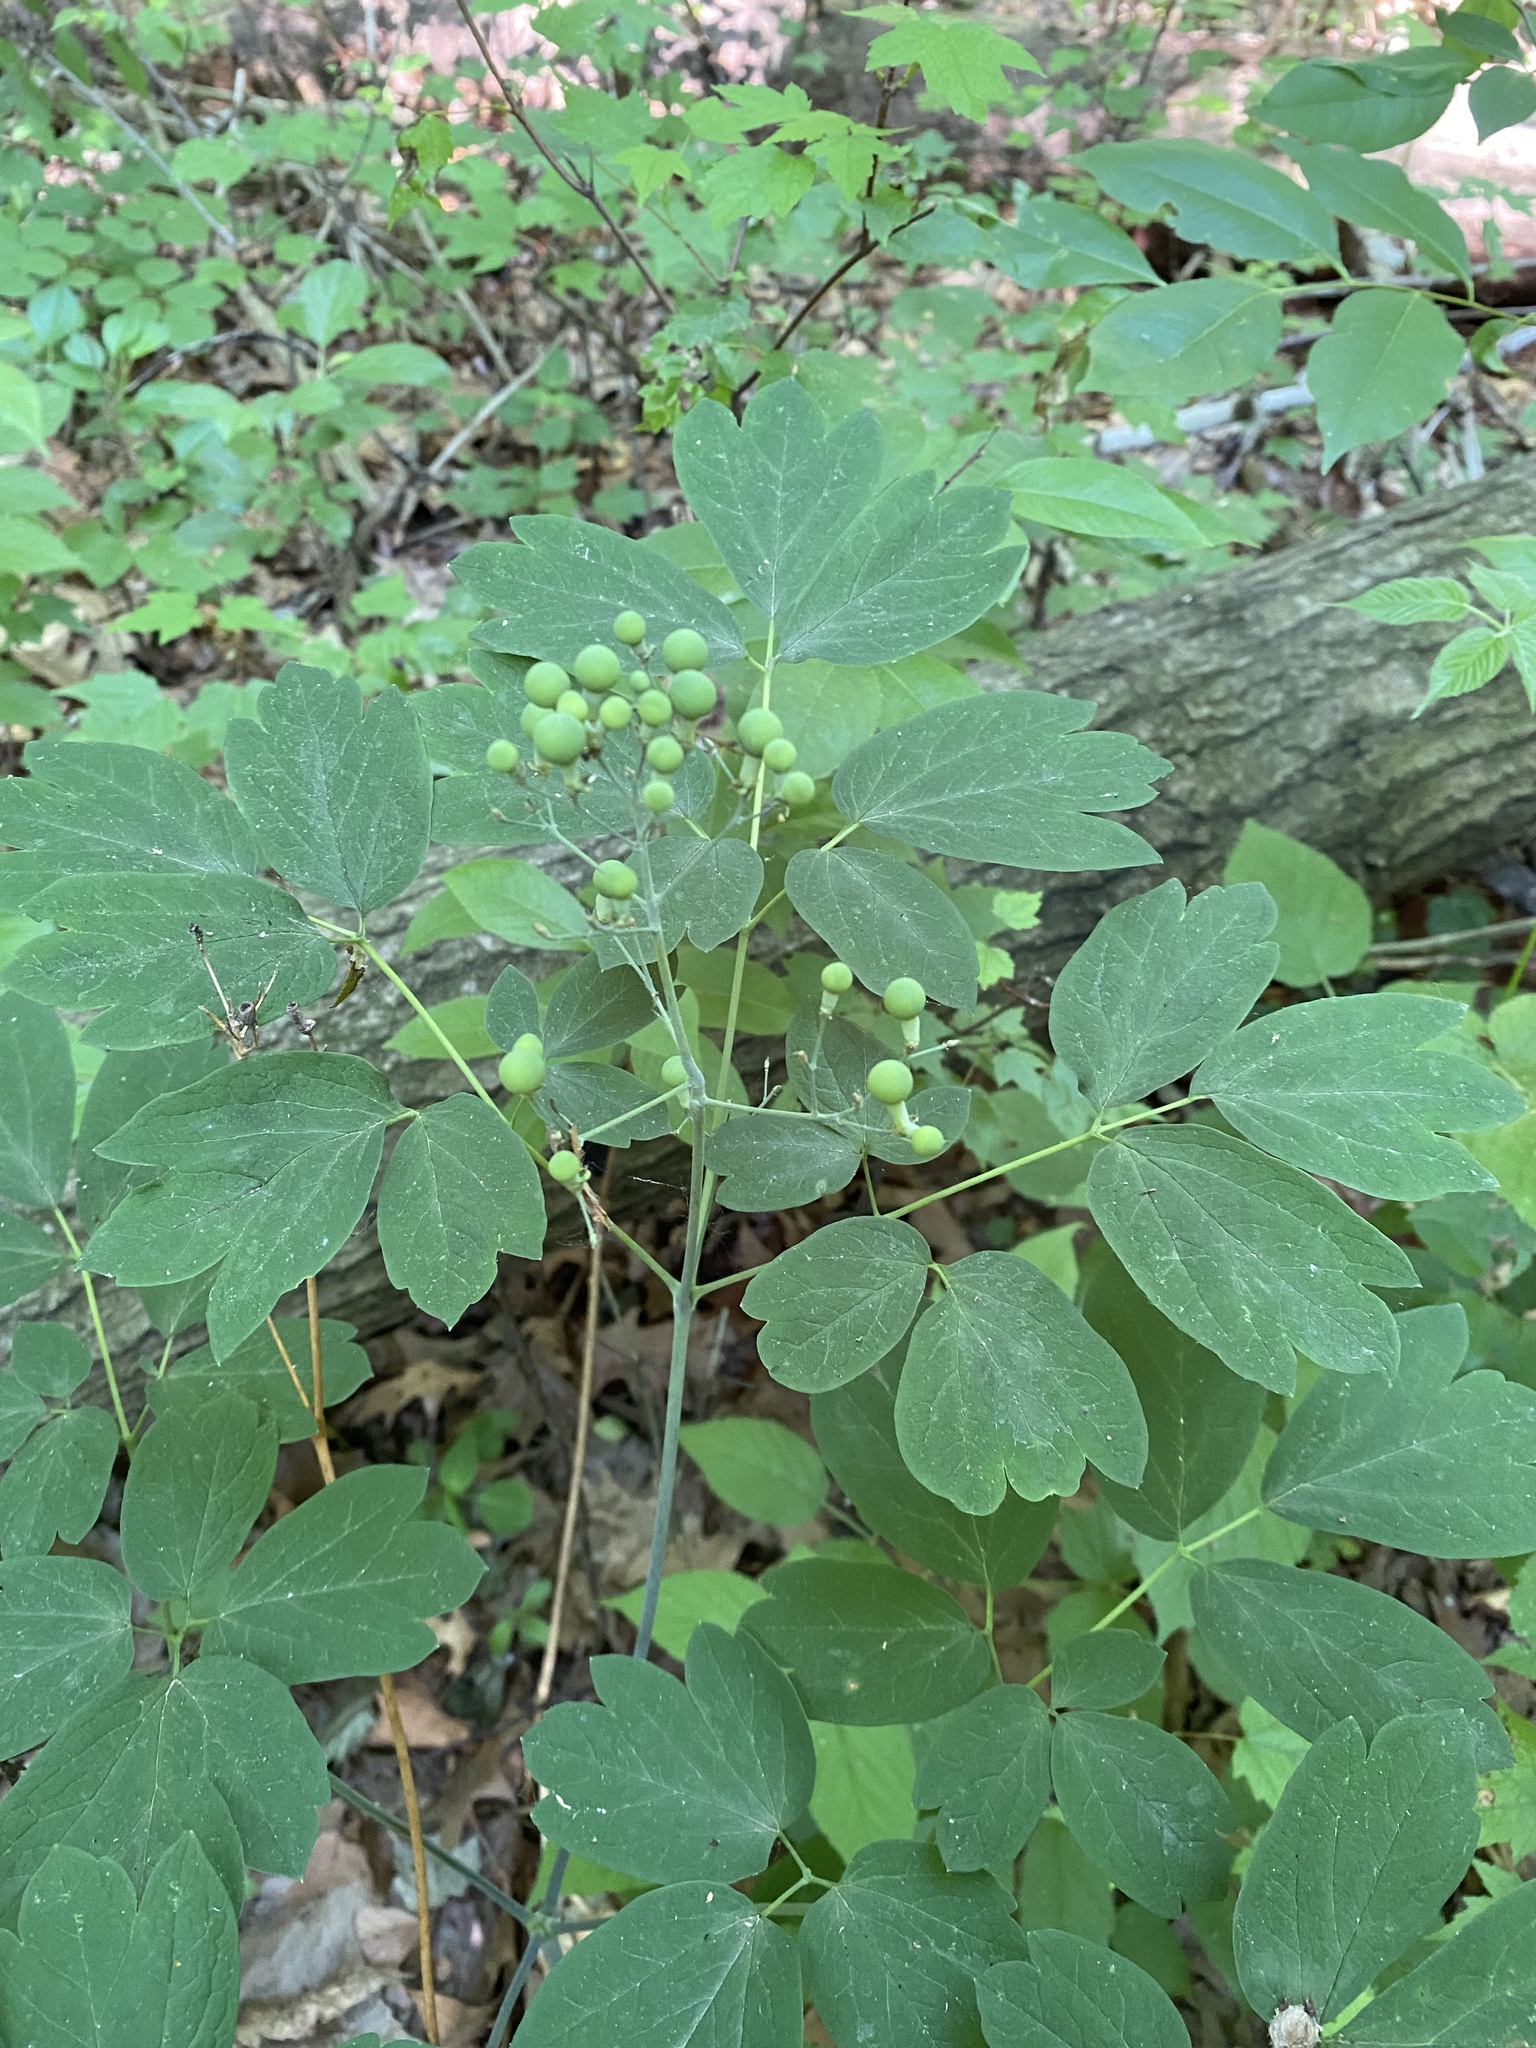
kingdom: Plantae
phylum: Tracheophyta
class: Magnoliopsida
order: Ranunculales
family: Berberidaceae
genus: Caulophyllum
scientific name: Caulophyllum thalictroides
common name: Blue cohosh
